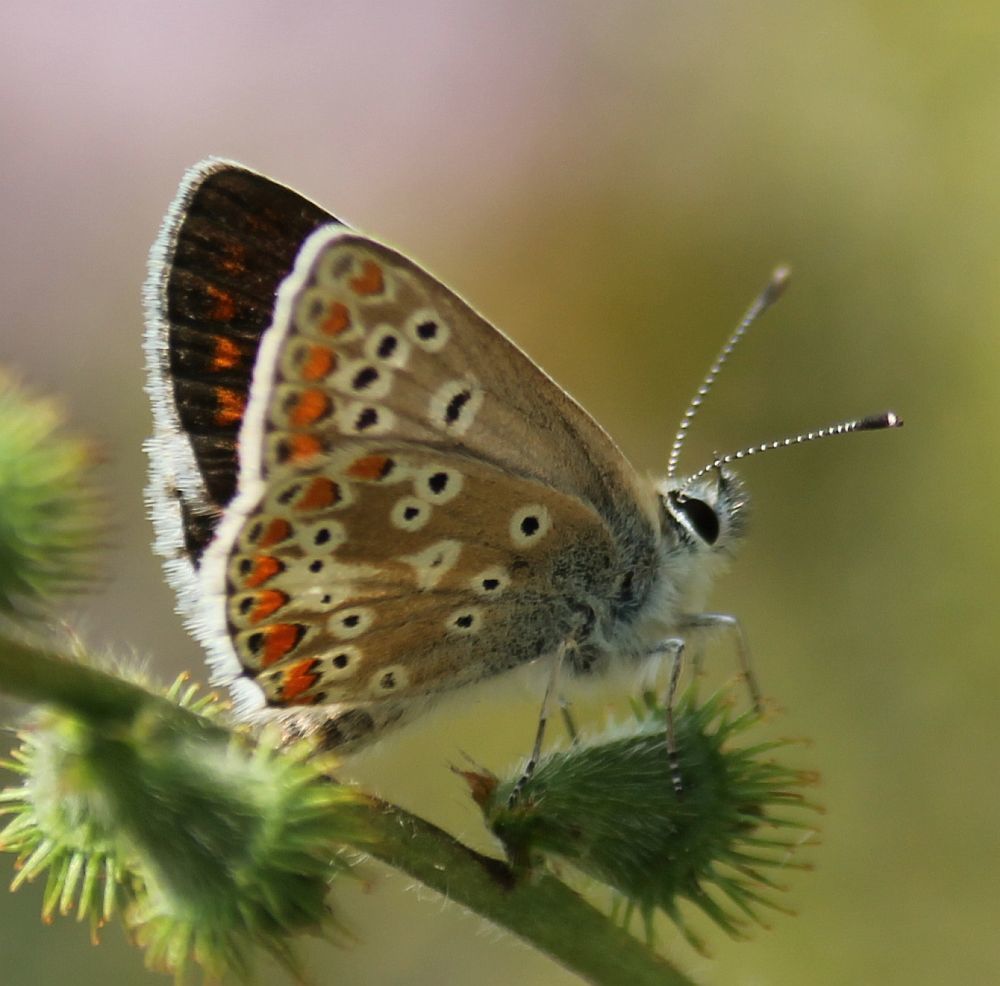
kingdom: Animalia
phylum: Arthropoda
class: Insecta
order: Lepidoptera
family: Lycaenidae
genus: Aricia
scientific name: Aricia agestis
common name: Brown argus
